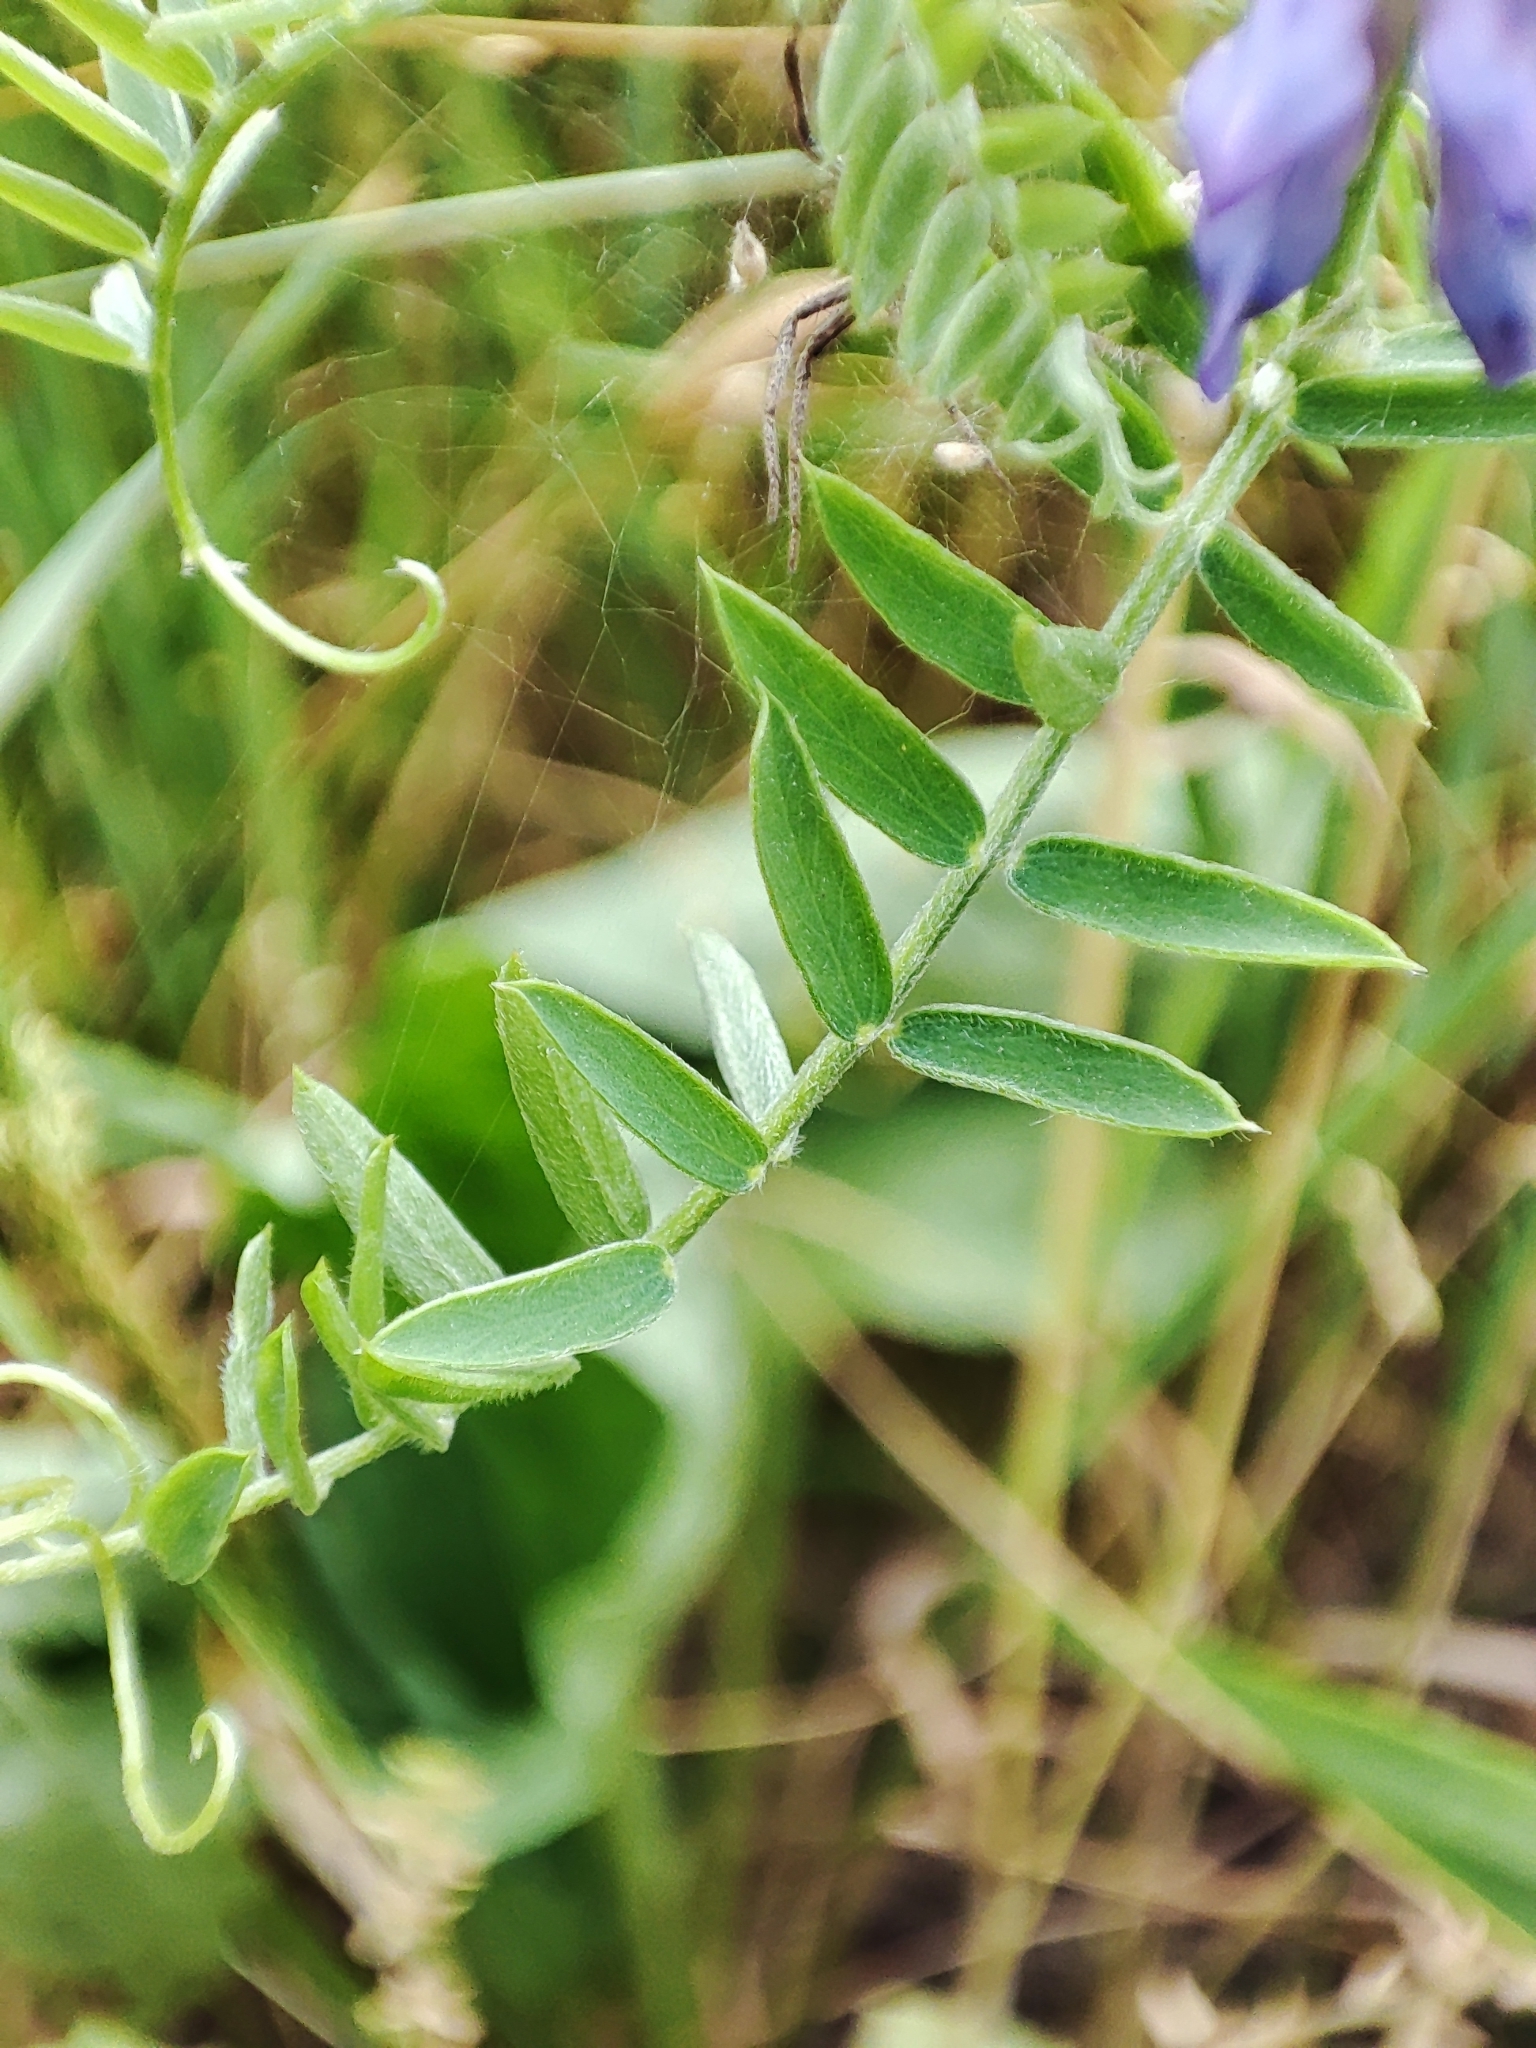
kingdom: Plantae
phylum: Tracheophyta
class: Magnoliopsida
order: Fabales
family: Fabaceae
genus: Vicia
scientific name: Vicia cracca
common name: Bird vetch
